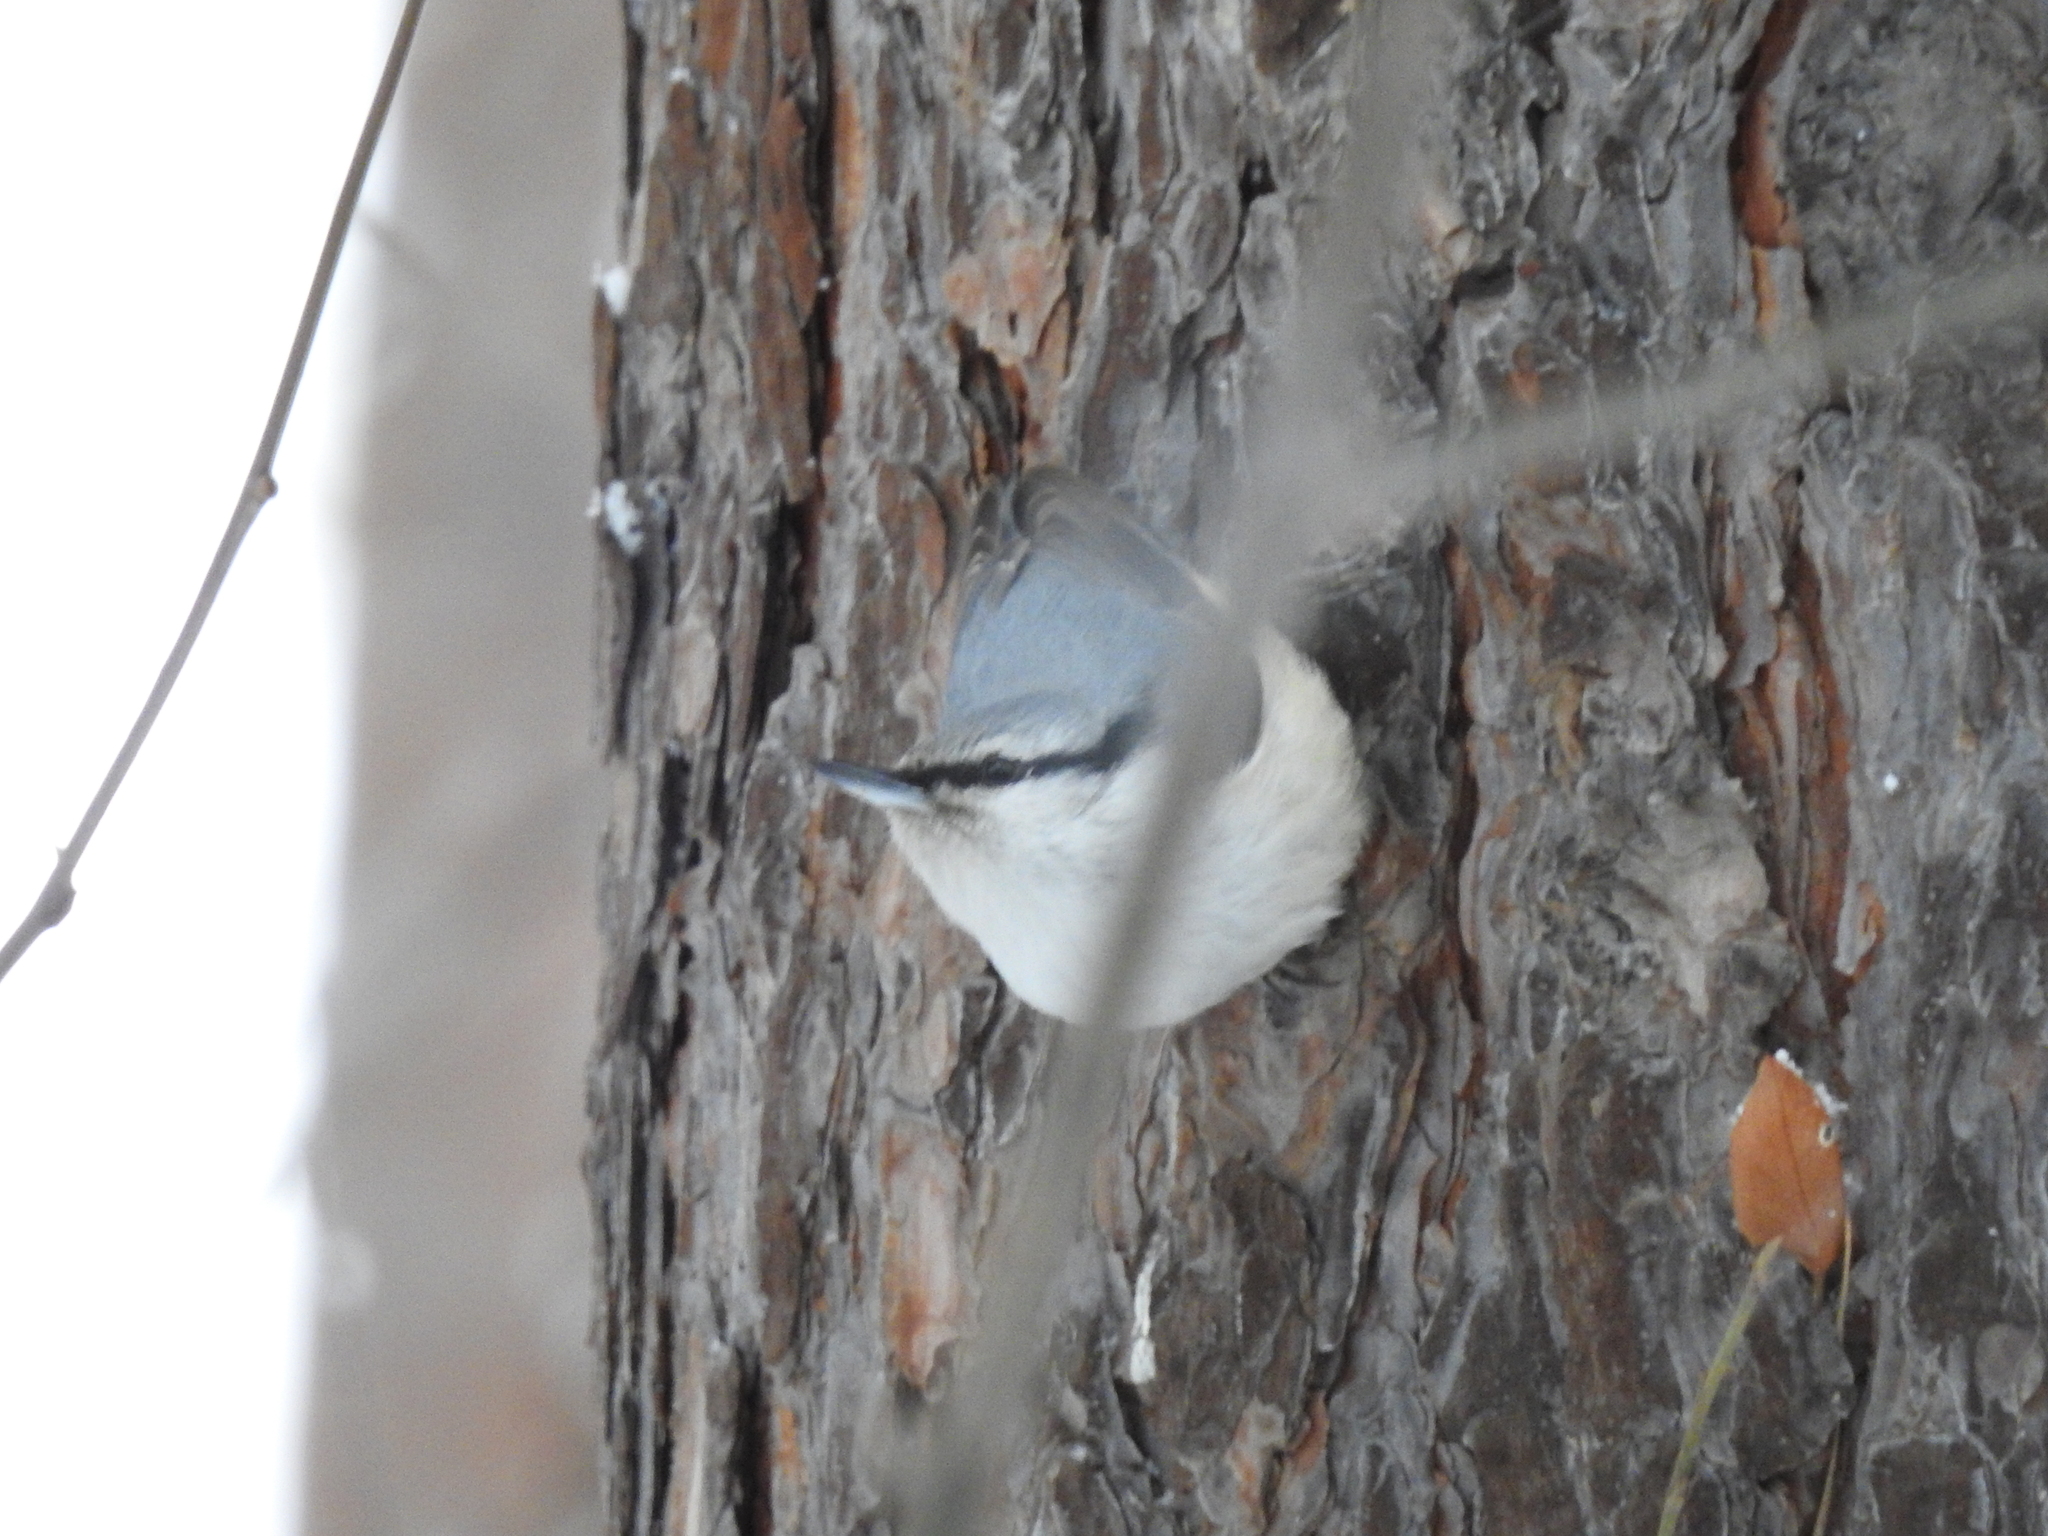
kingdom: Animalia
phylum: Chordata
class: Aves
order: Passeriformes
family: Sittidae
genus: Sitta
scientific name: Sitta europaea
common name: Eurasian nuthatch
